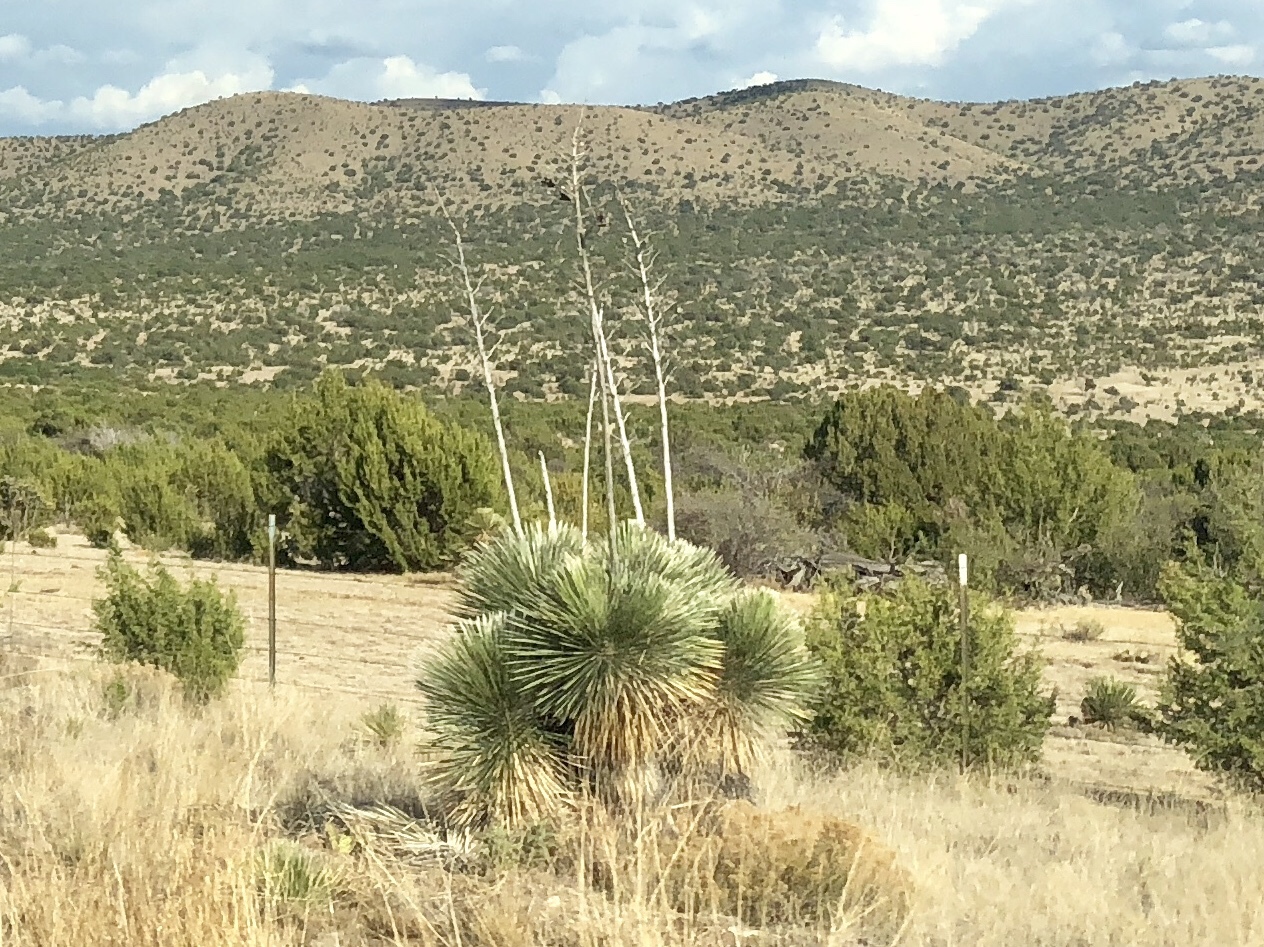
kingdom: Plantae
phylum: Tracheophyta
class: Liliopsida
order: Asparagales
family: Asparagaceae
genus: Yucca
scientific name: Yucca elata
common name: Palmella
